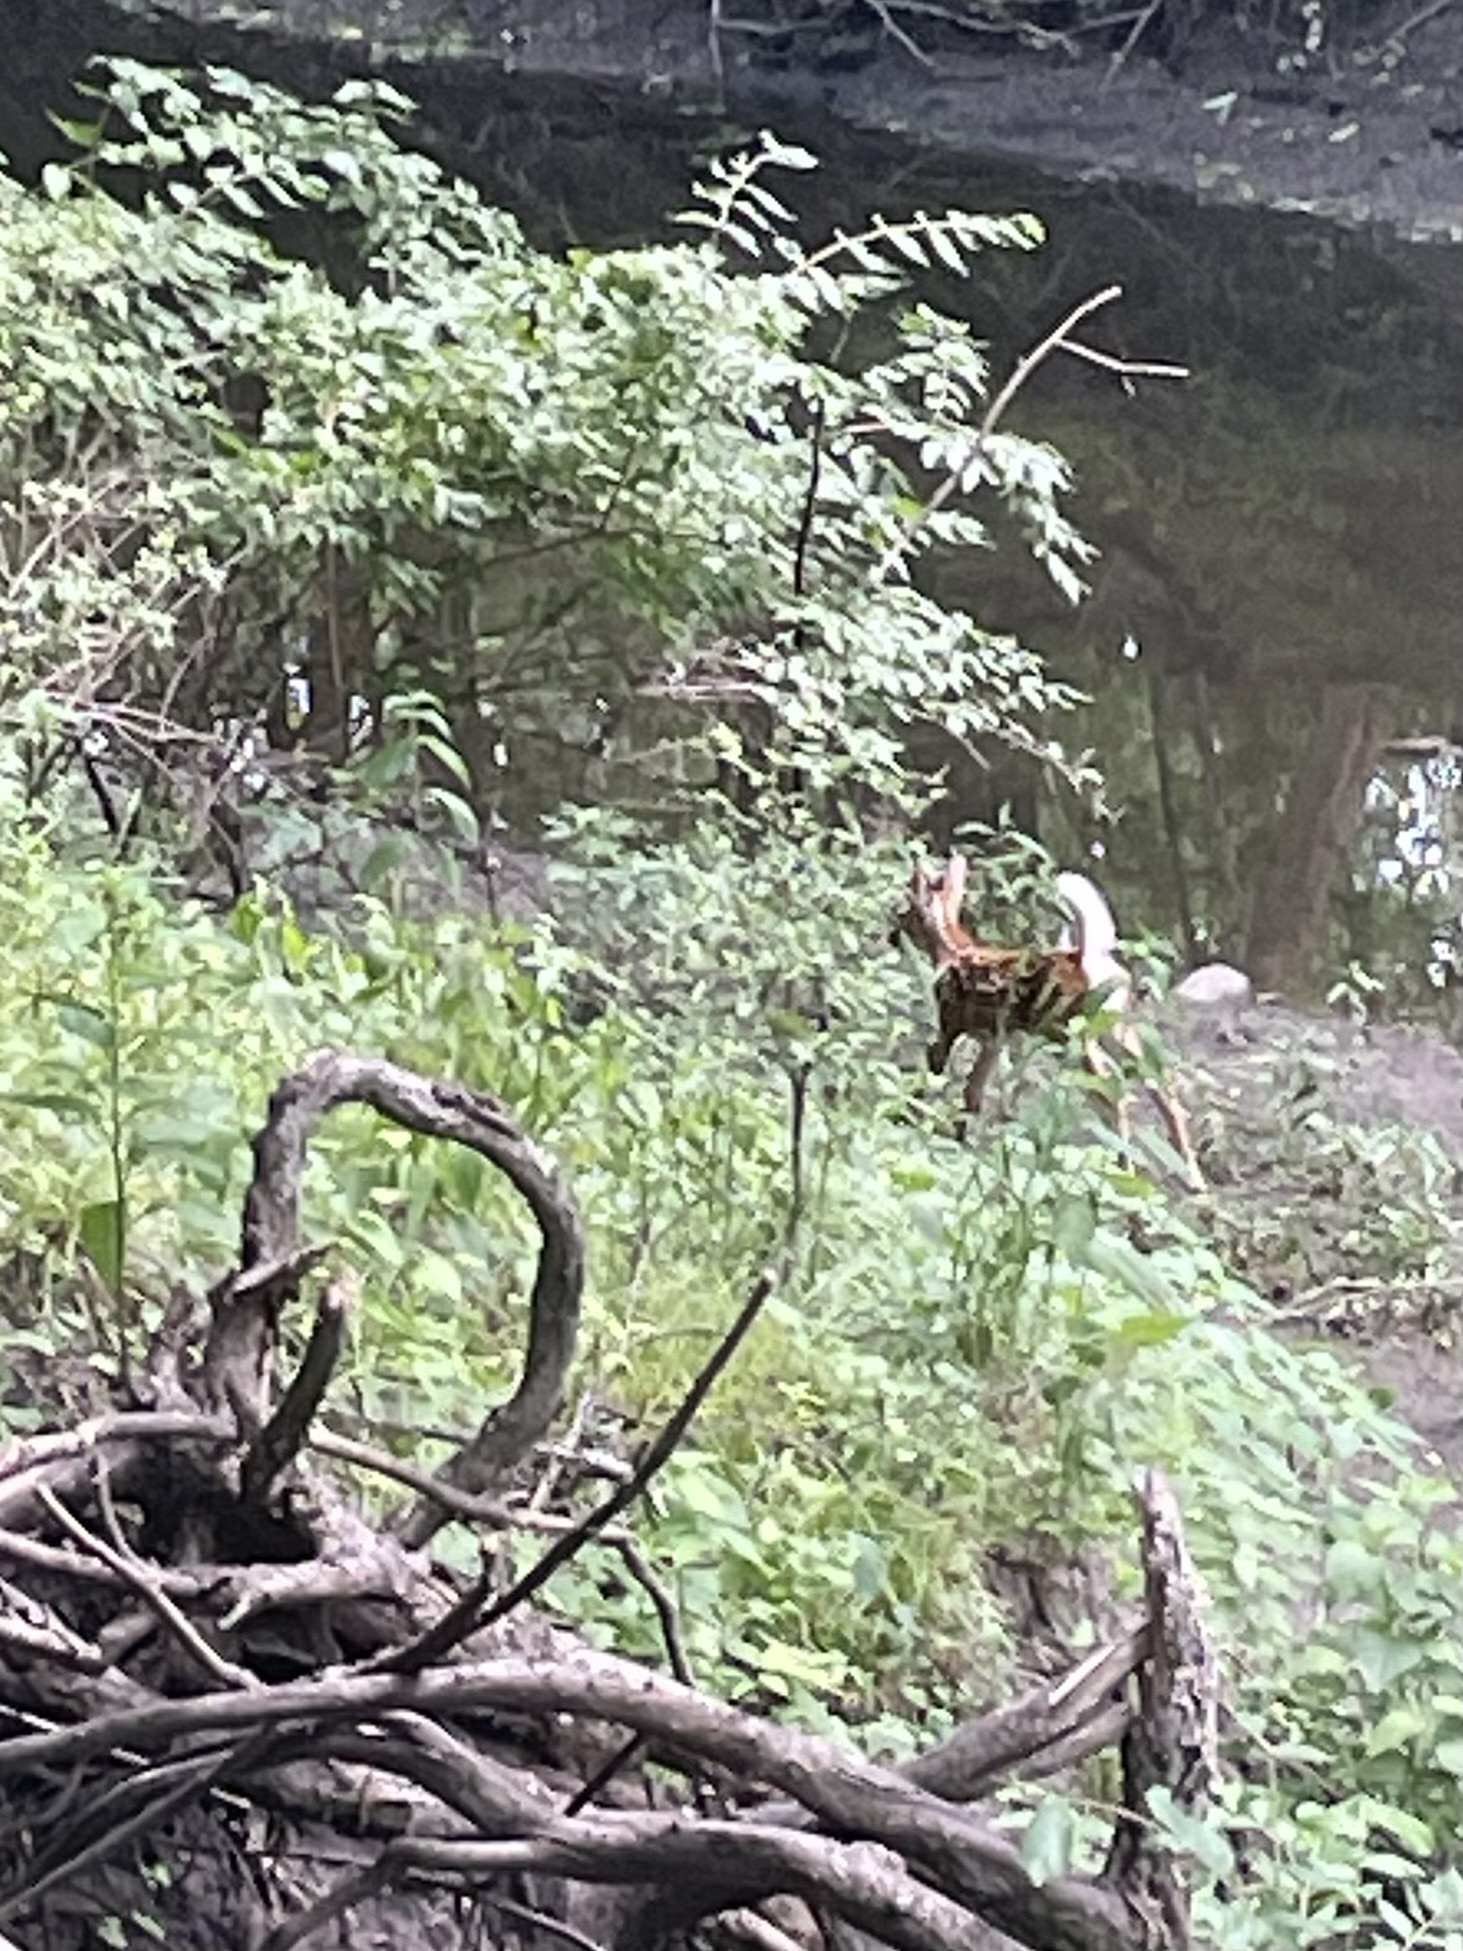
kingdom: Animalia
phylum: Chordata
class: Mammalia
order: Artiodactyla
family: Cervidae
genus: Odocoileus
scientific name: Odocoileus virginianus
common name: White-tailed deer
